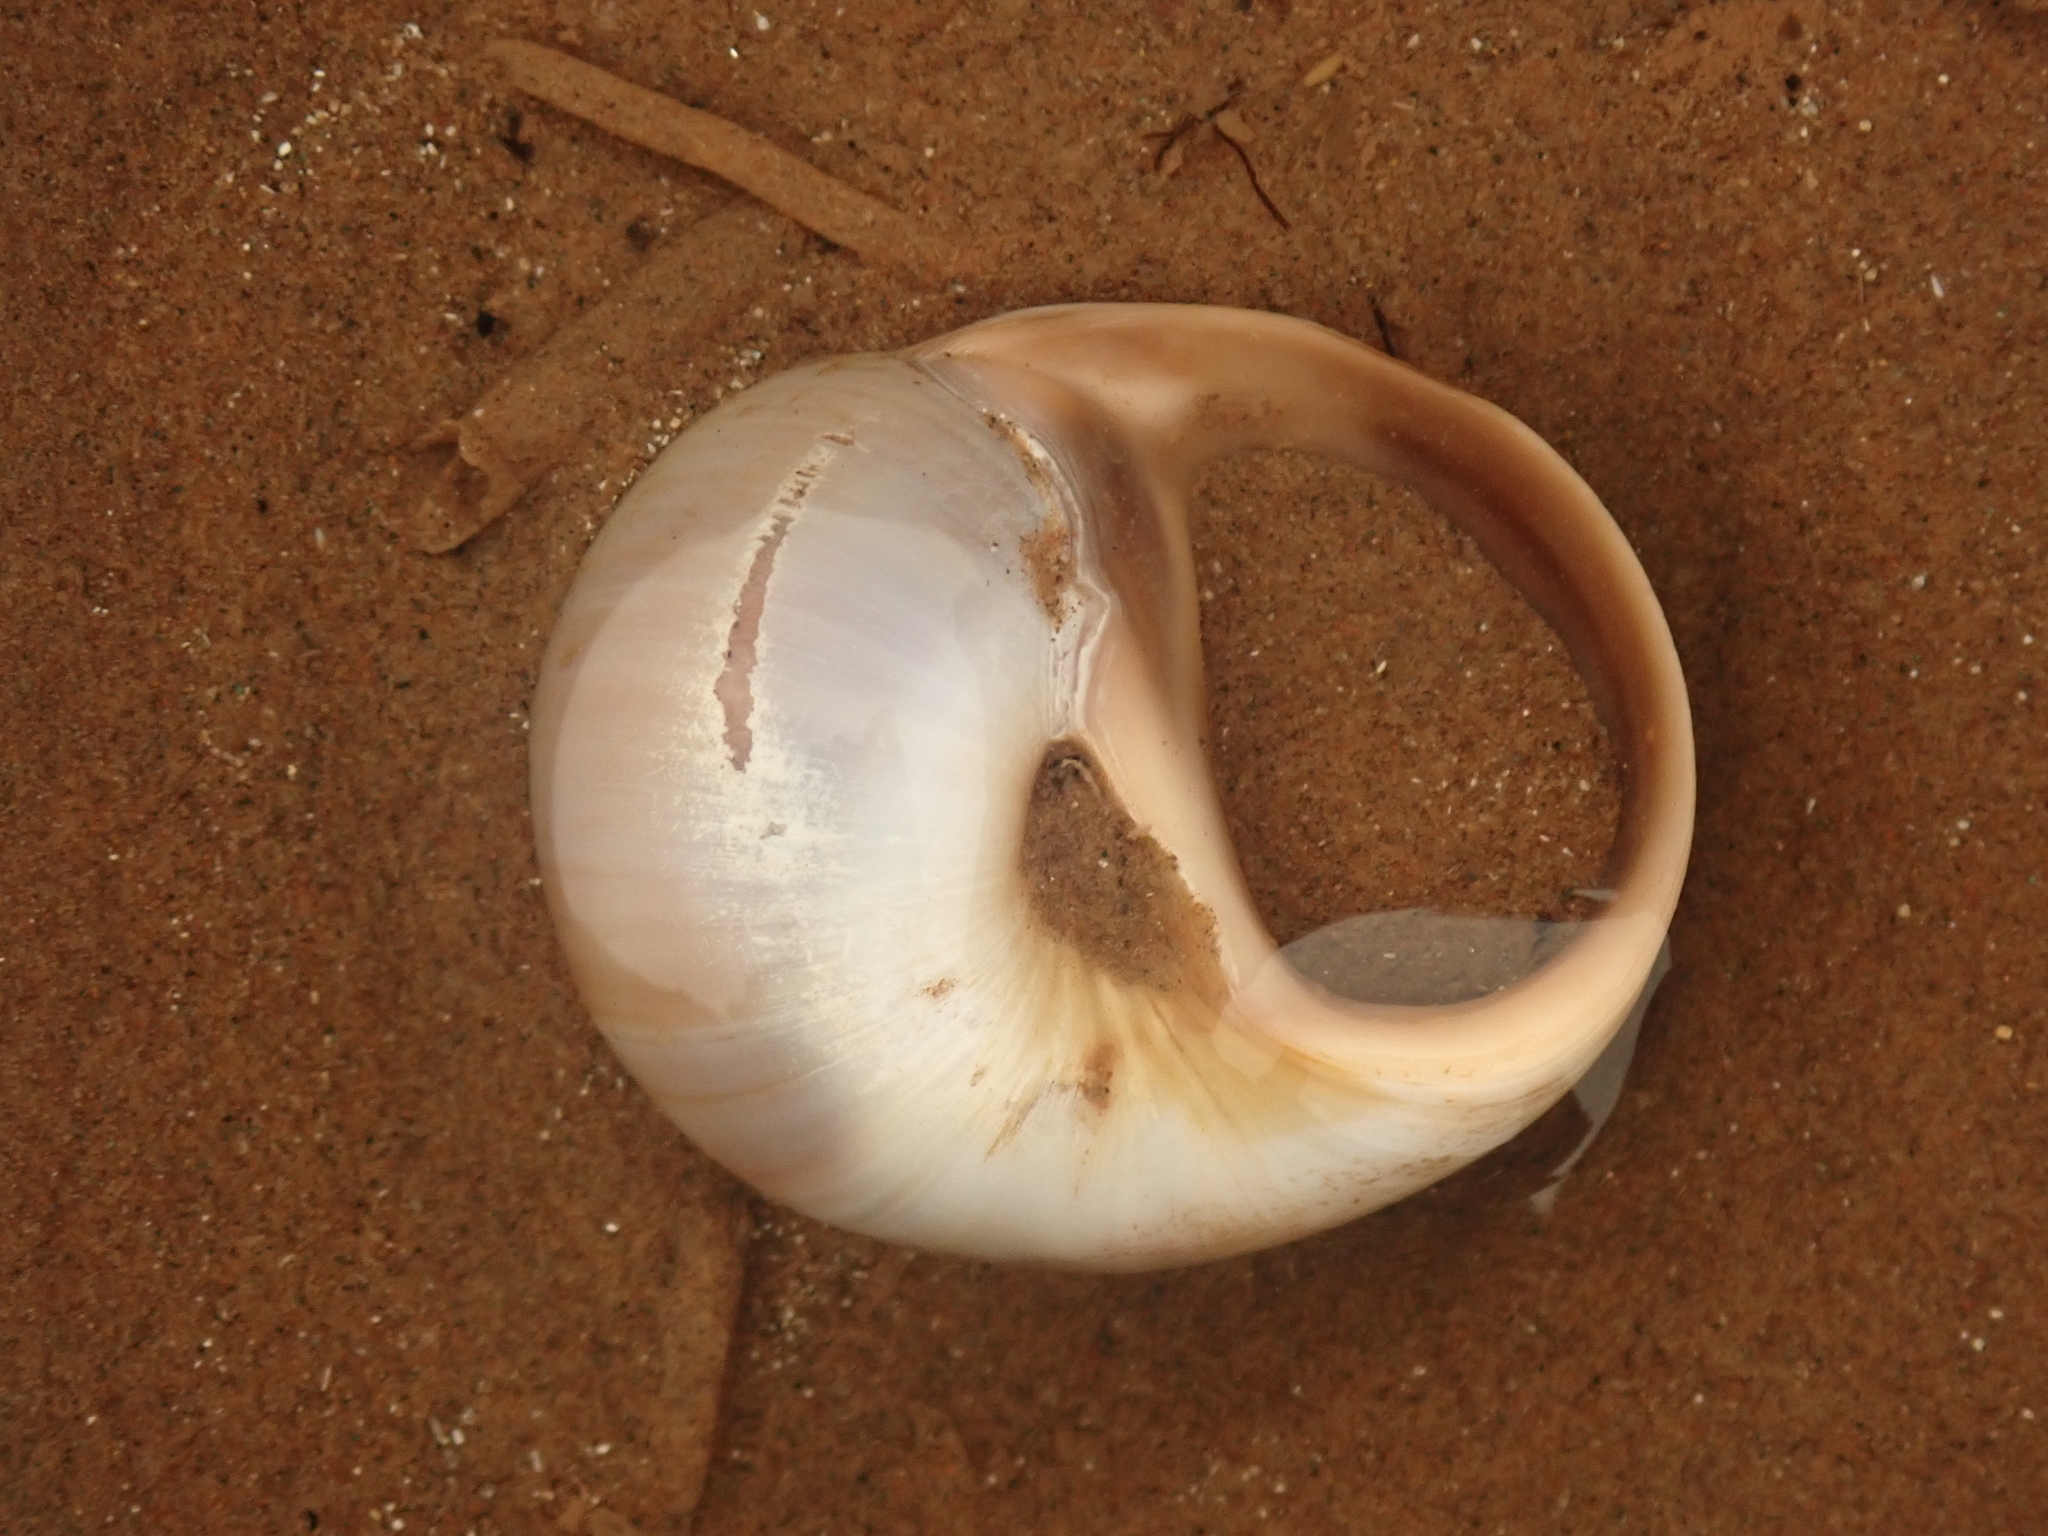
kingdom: Animalia
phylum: Mollusca
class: Gastropoda
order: Littorinimorpha
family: Naticidae
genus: Euspira
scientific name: Euspira heros
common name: Common northern moonsnail
